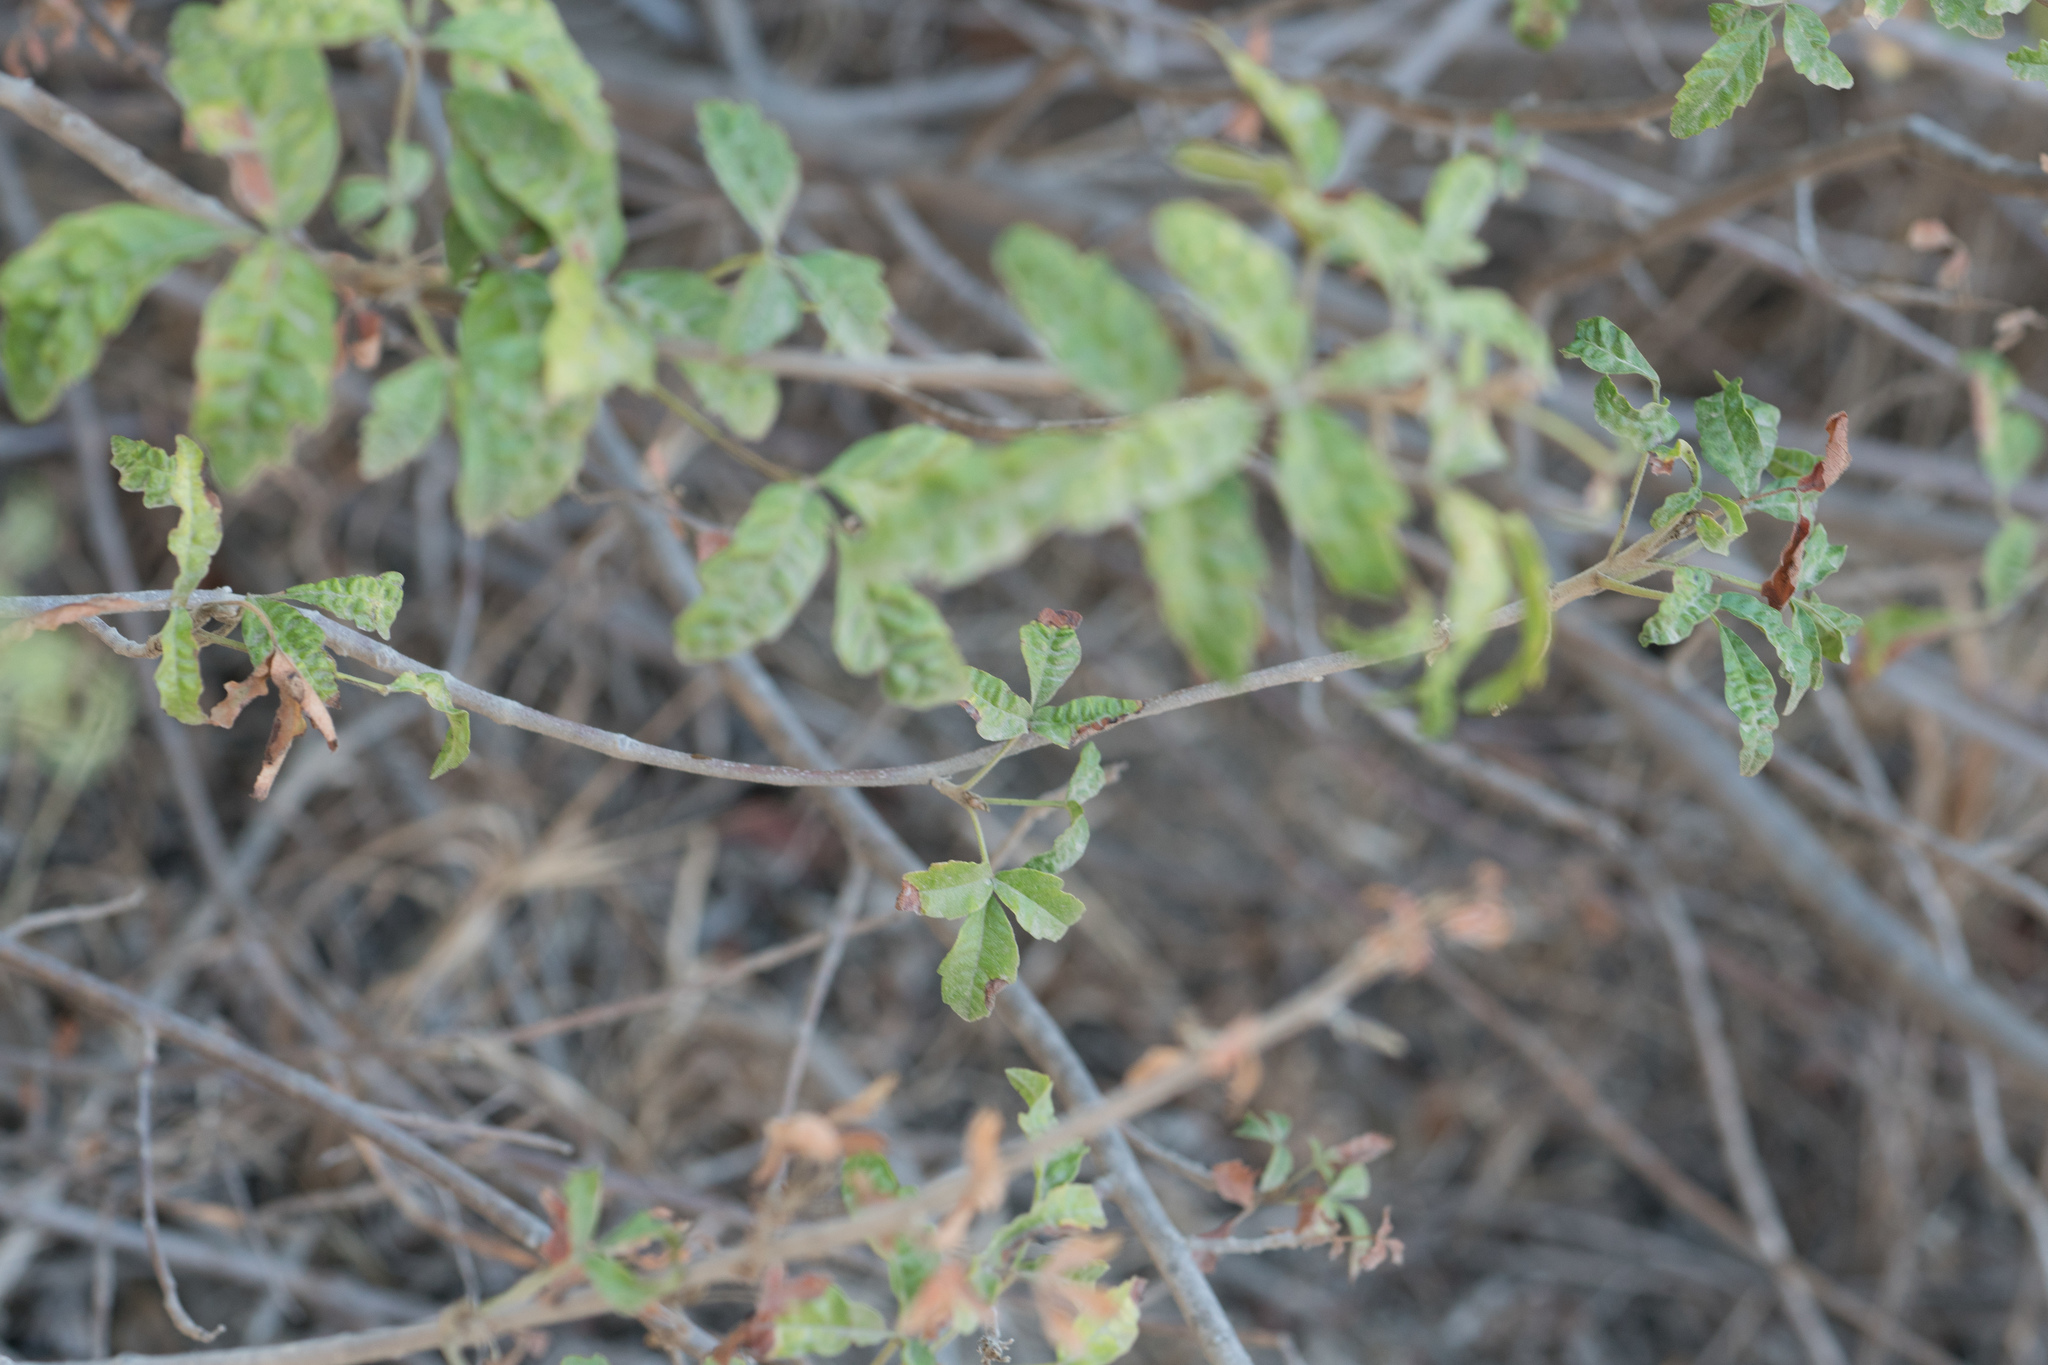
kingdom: Plantae
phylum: Tracheophyta
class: Magnoliopsida
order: Sapindales
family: Anacardiaceae
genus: Toxicodendron
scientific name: Toxicodendron diversilobum
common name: Pacific poison-oak
